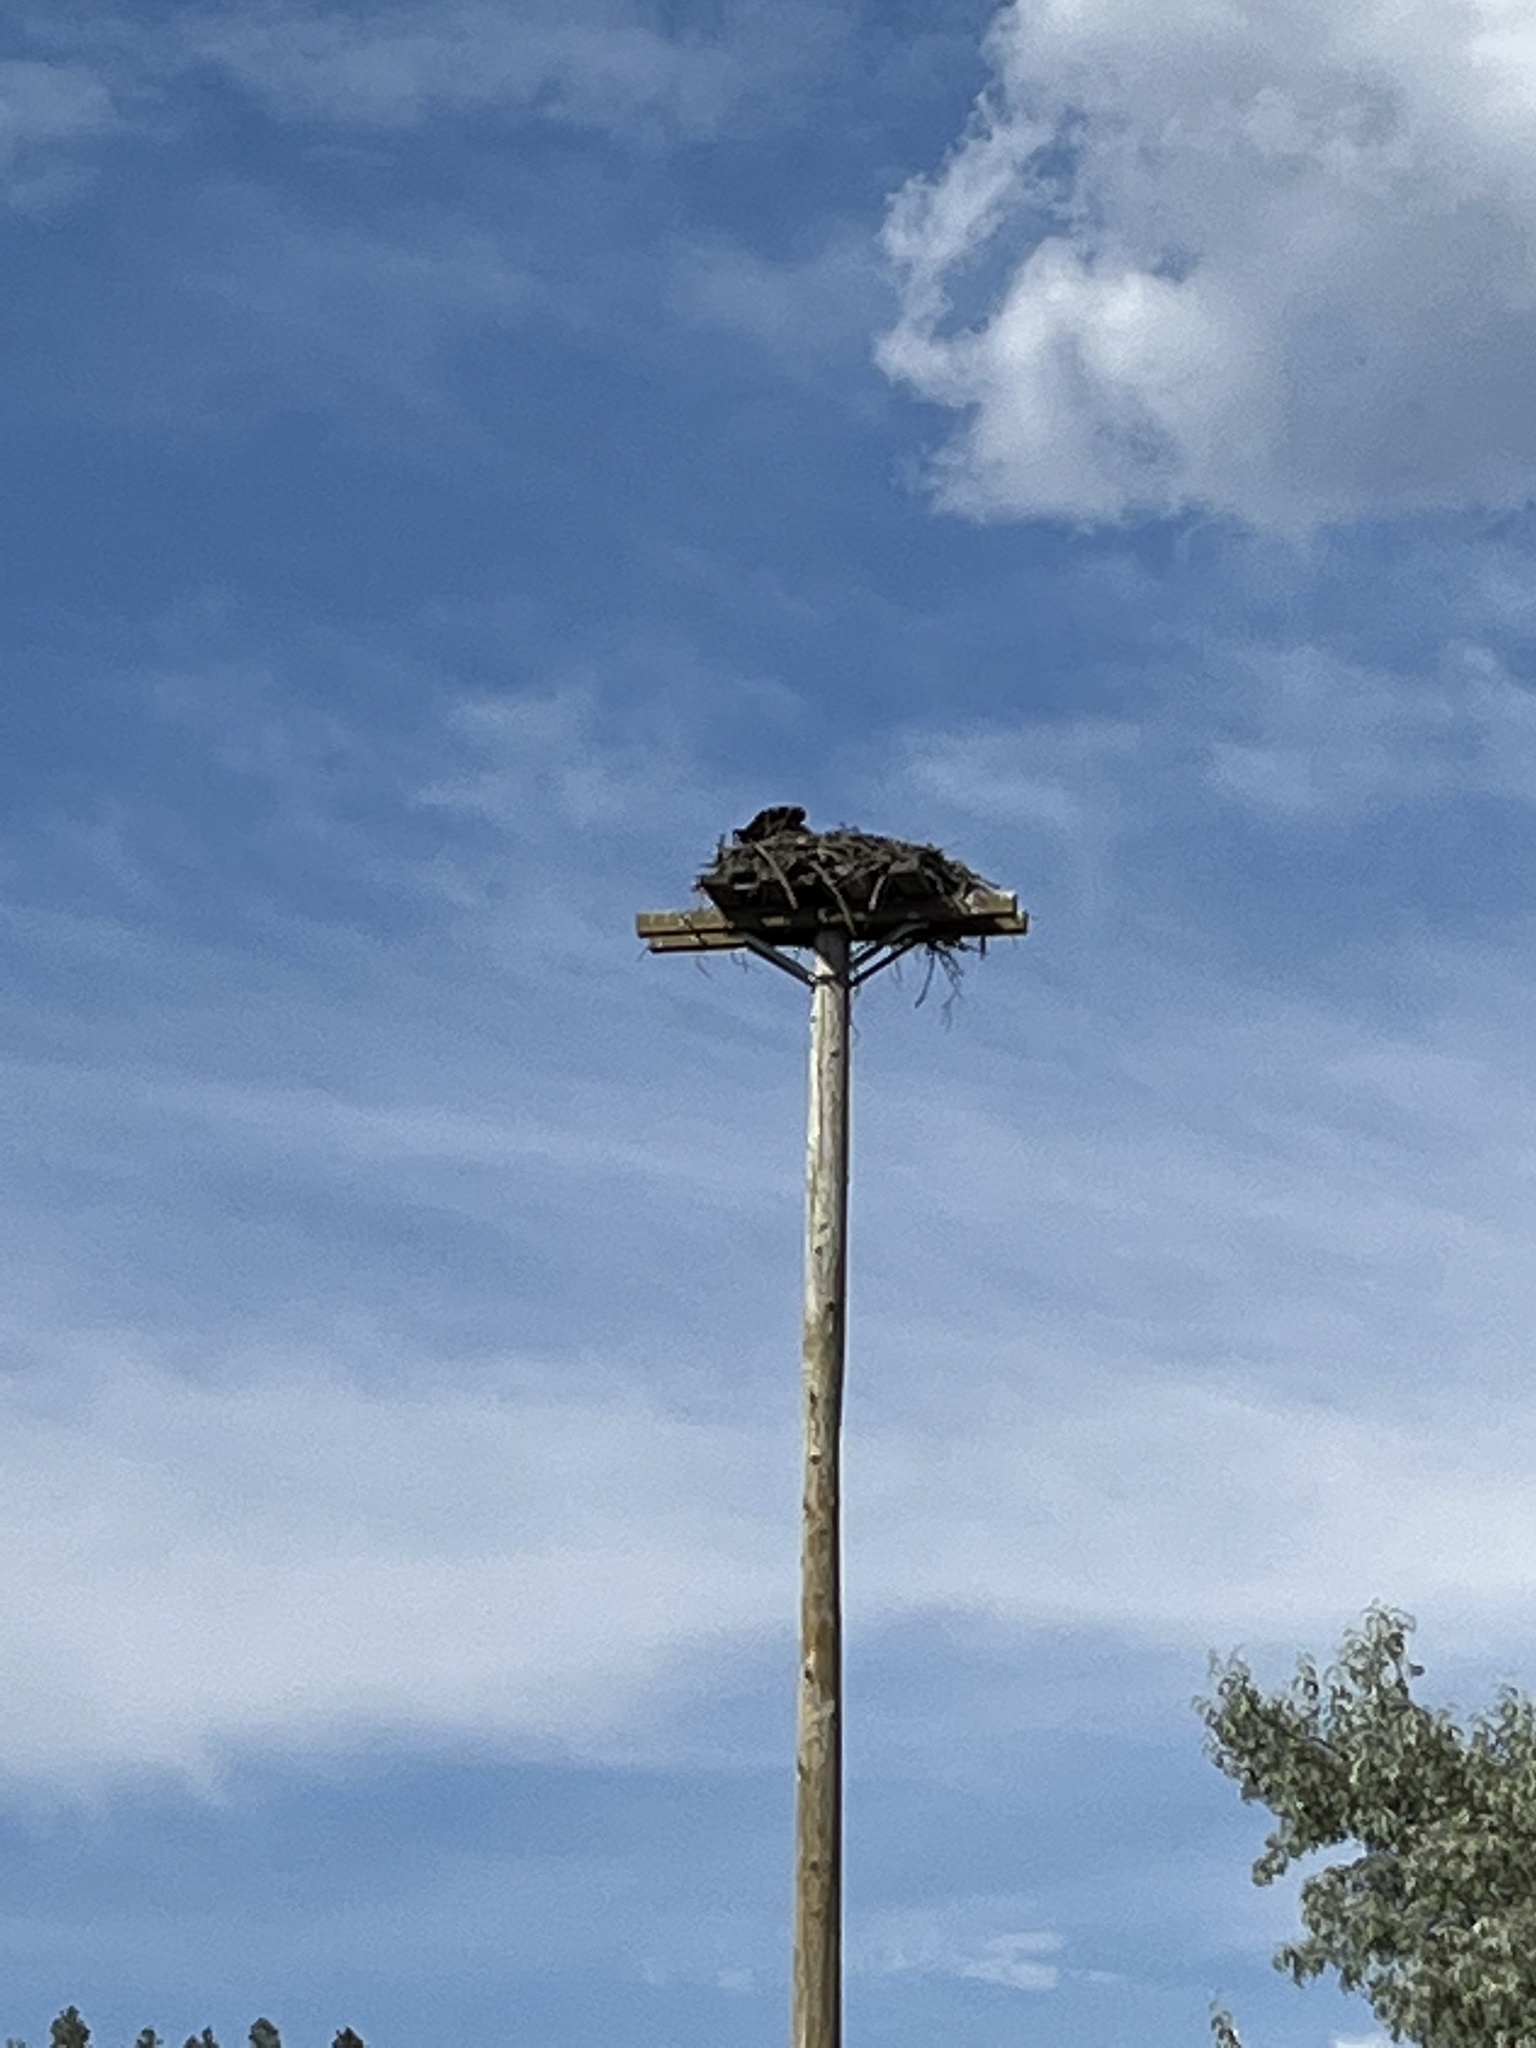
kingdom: Animalia
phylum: Chordata
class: Aves
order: Accipitriformes
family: Pandionidae
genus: Pandion
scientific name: Pandion haliaetus
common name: Osprey
